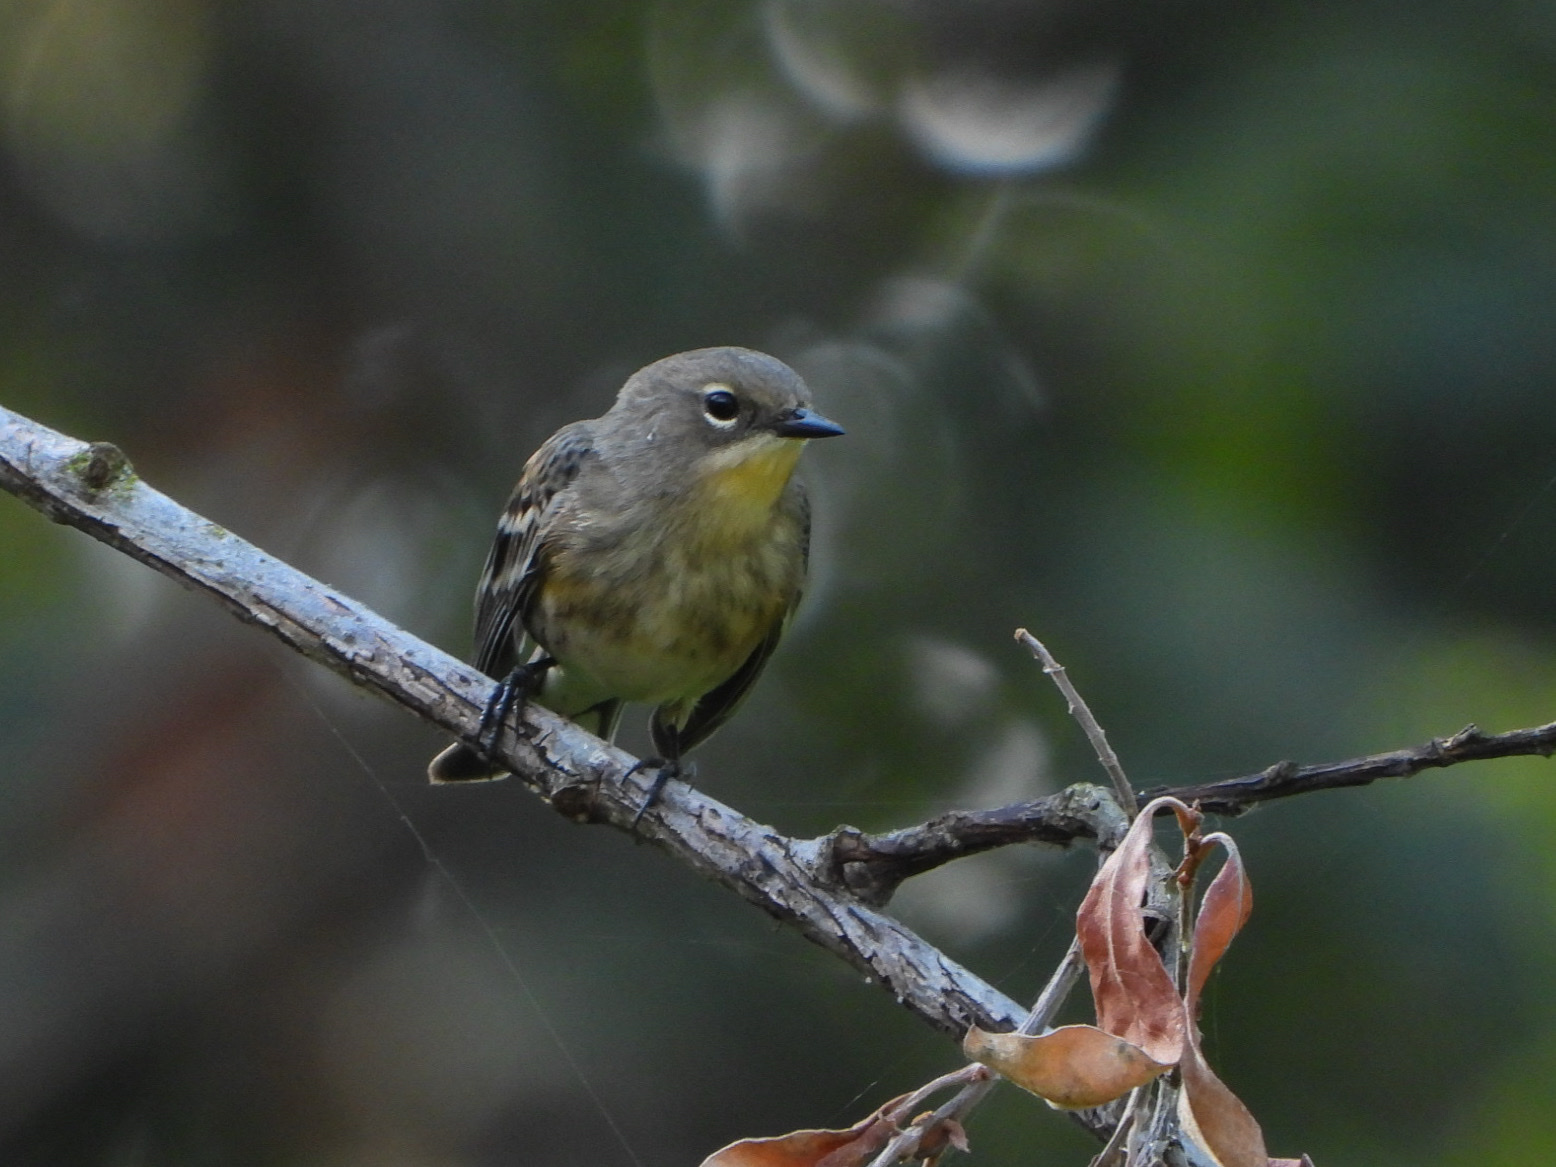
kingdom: Animalia
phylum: Chordata
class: Aves
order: Passeriformes
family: Parulidae
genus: Setophaga
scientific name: Setophaga coronata
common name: Myrtle warbler
